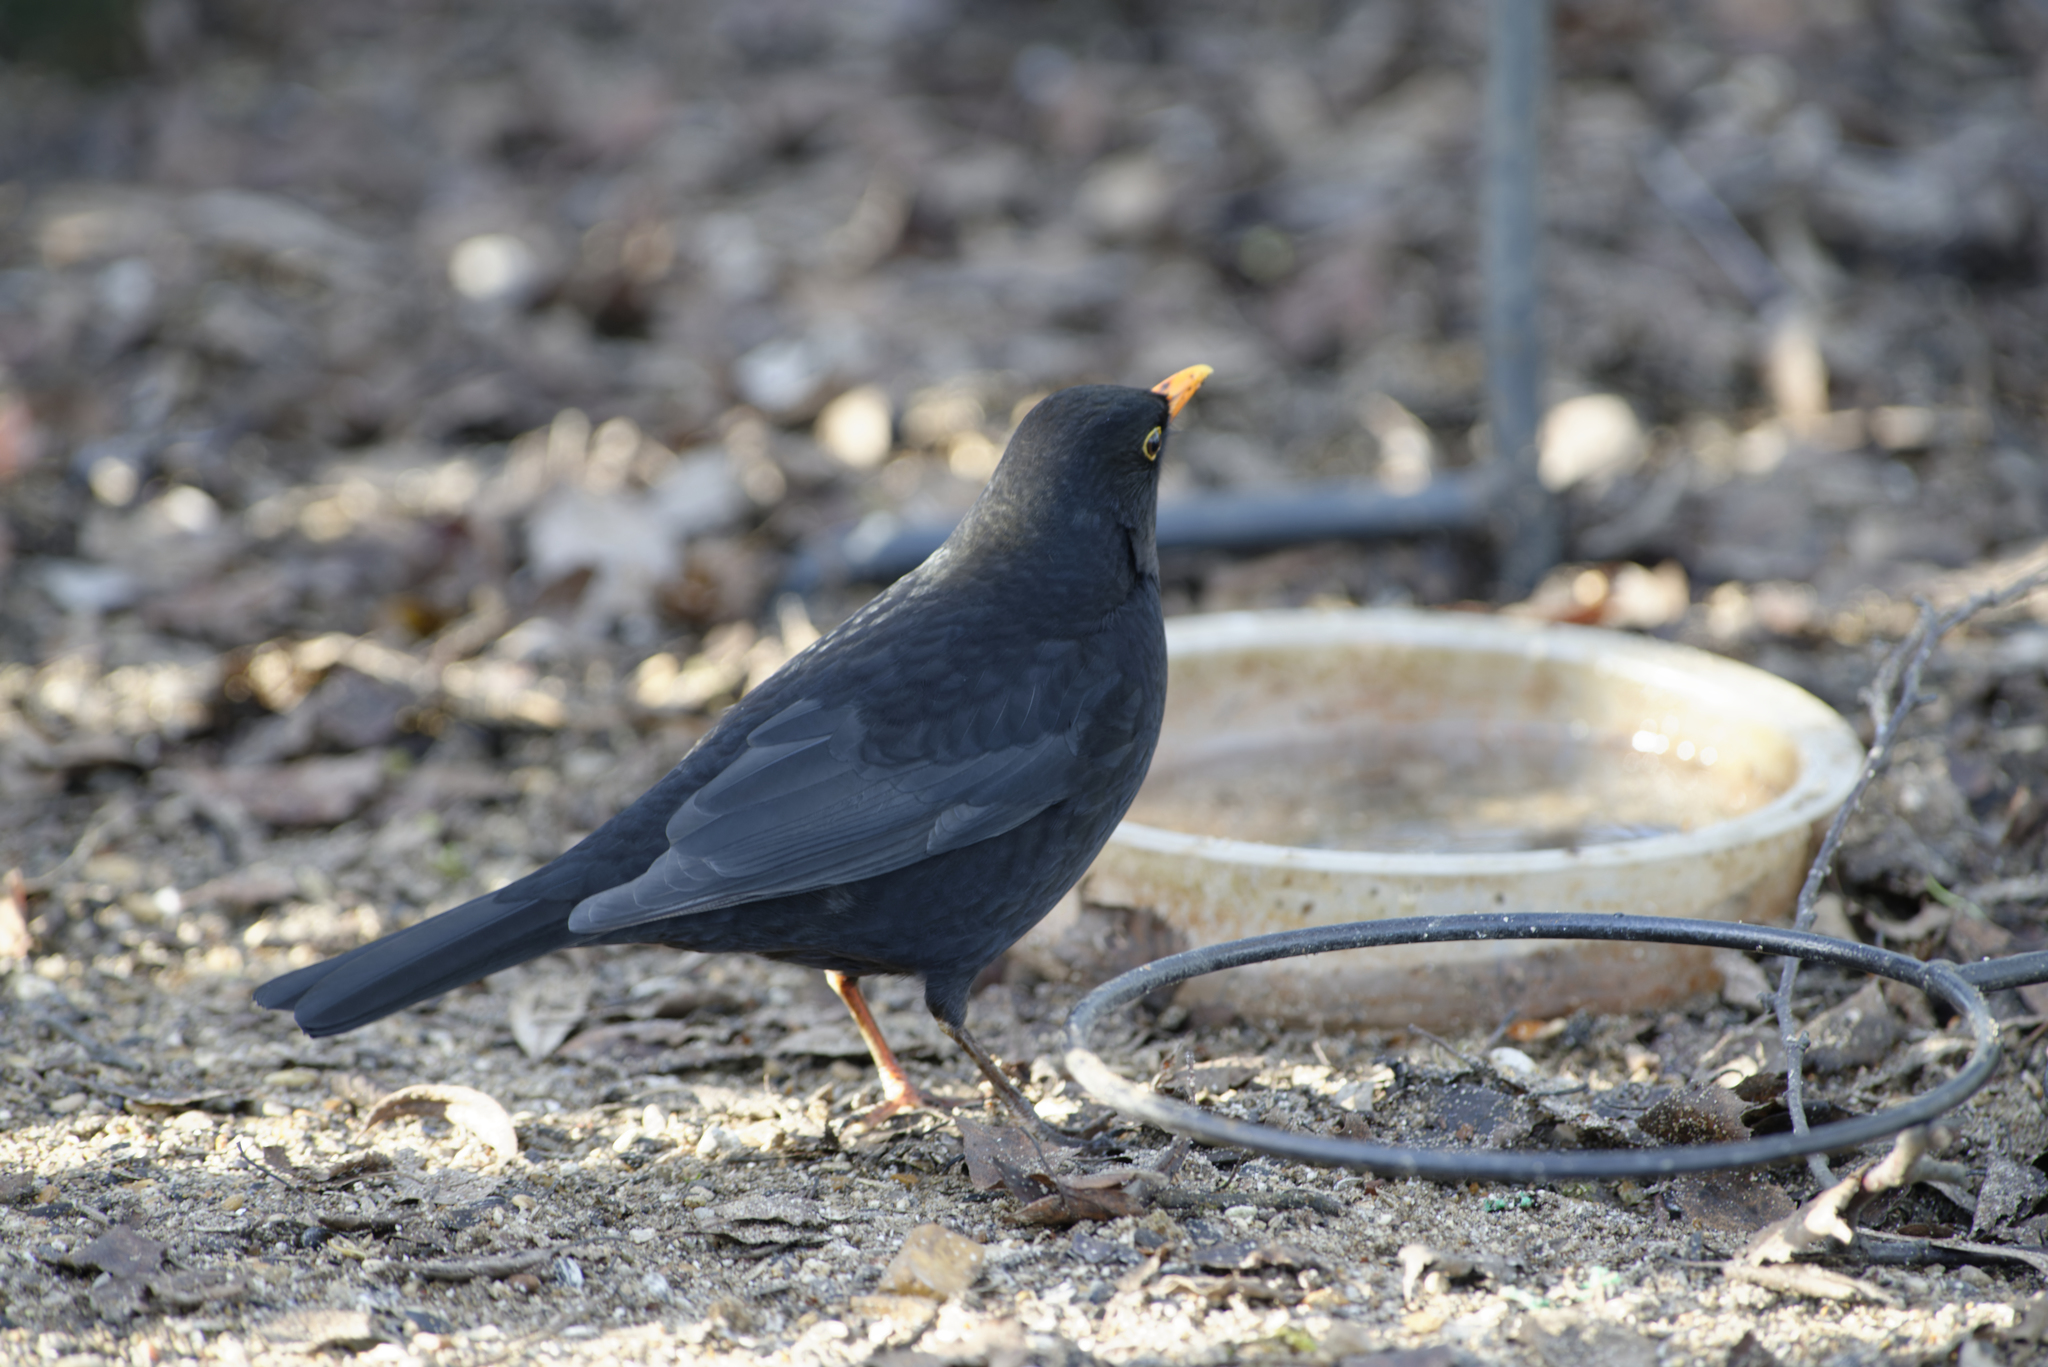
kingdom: Animalia
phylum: Chordata
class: Aves
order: Passeriformes
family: Turdidae
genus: Turdus
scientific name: Turdus merula
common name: Common blackbird
